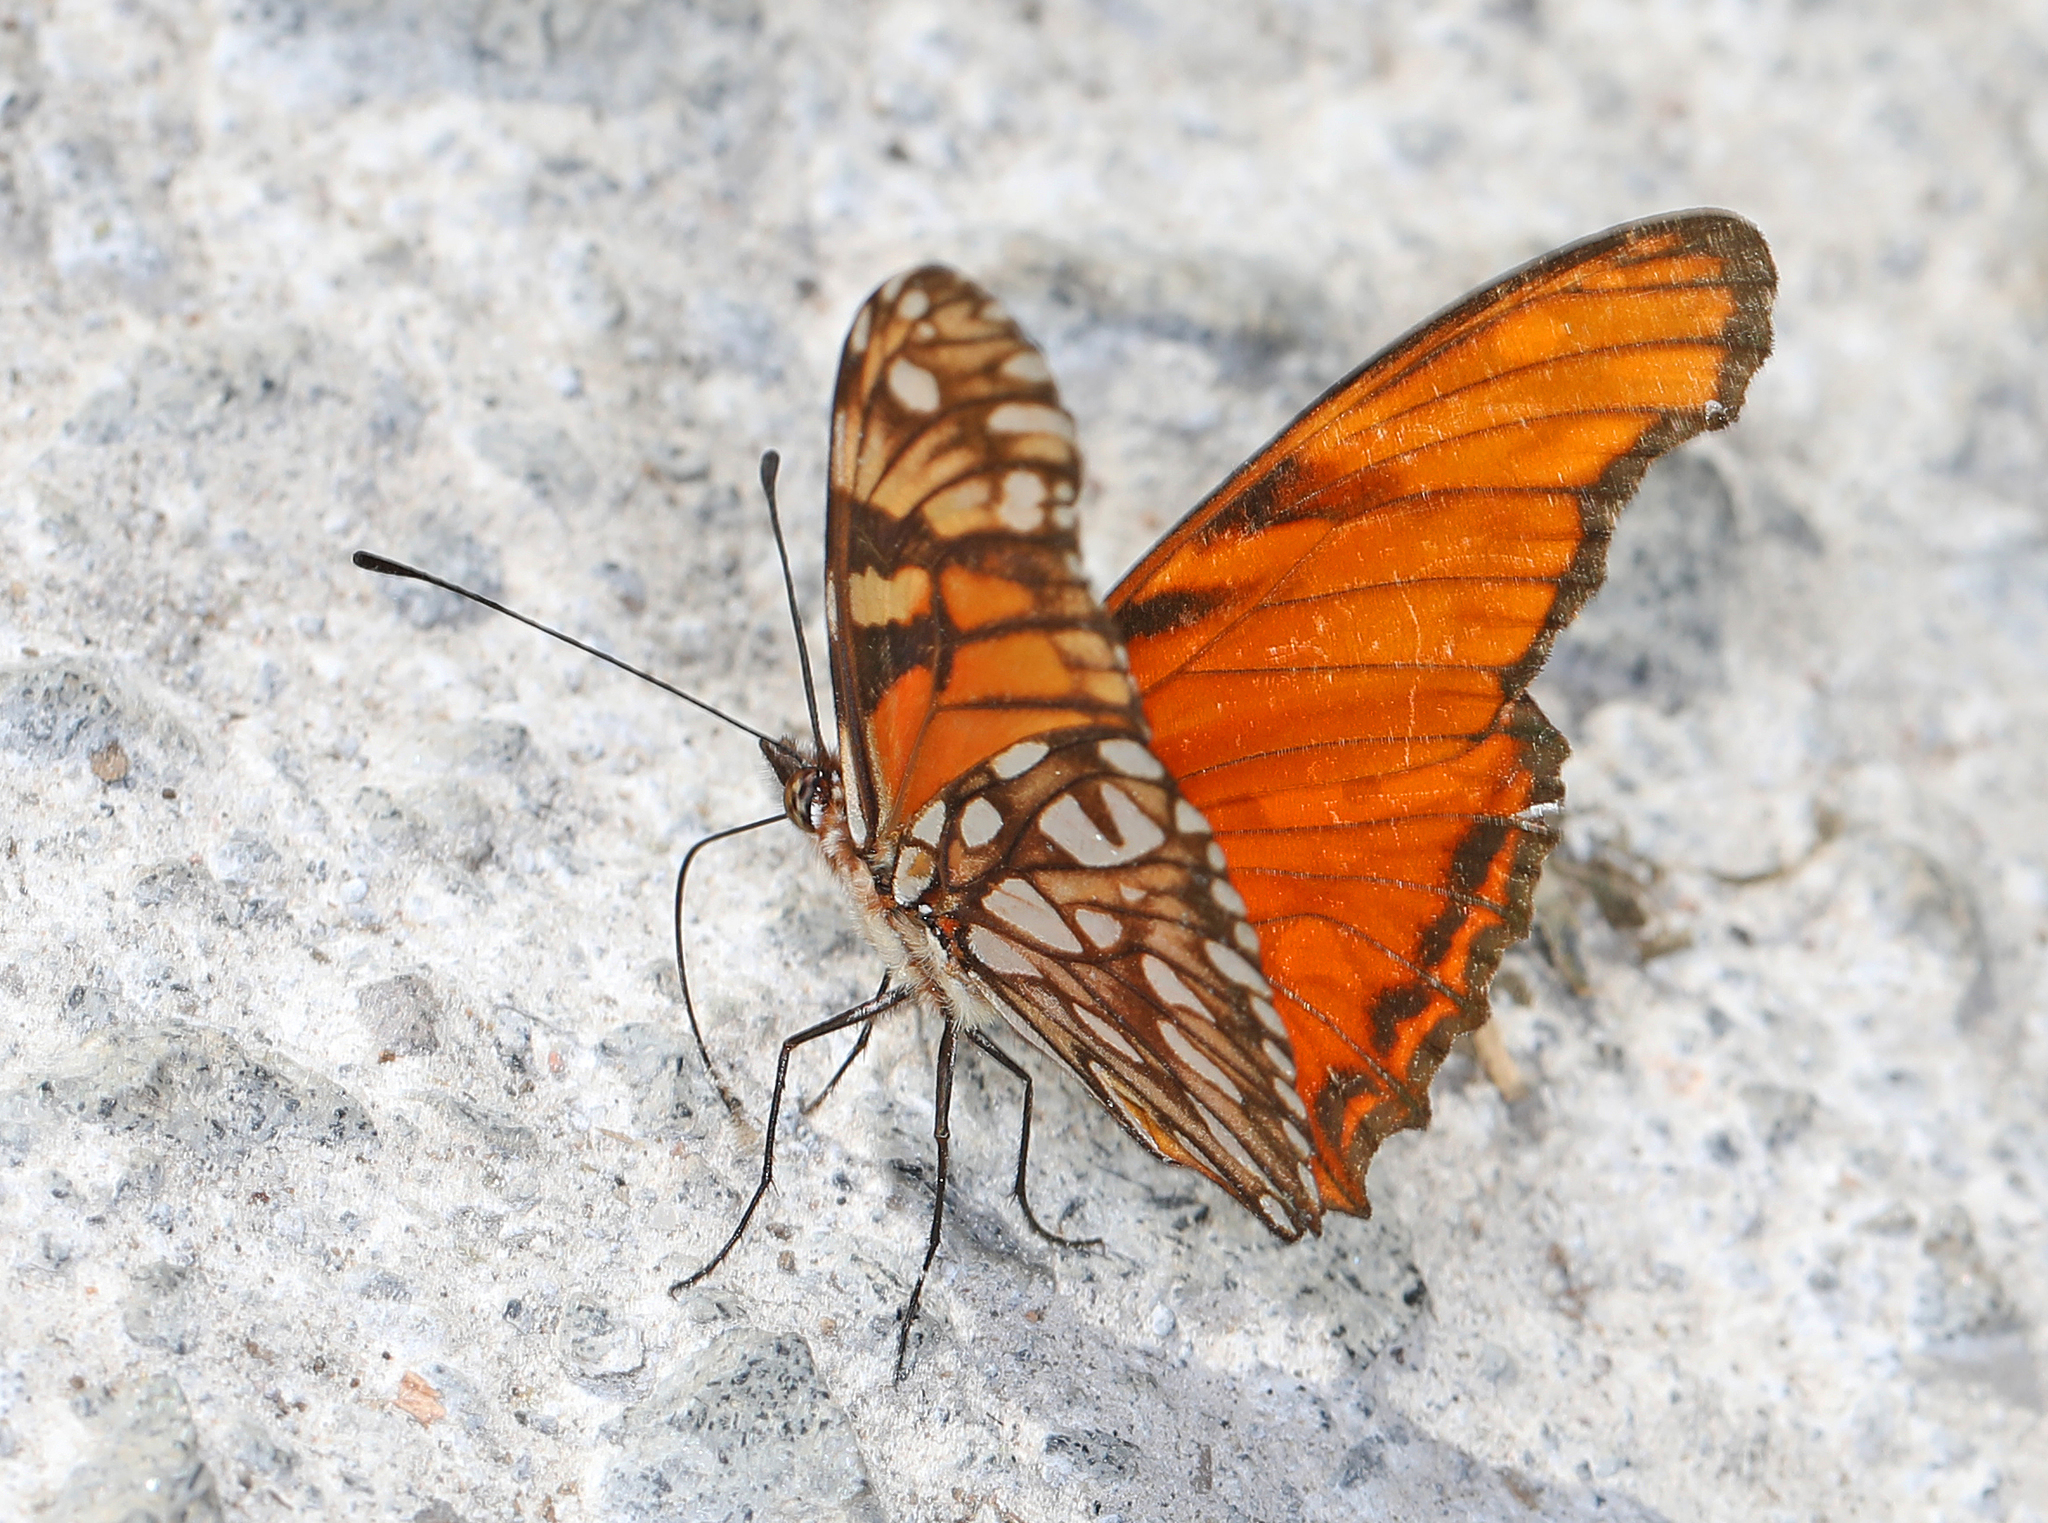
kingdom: Animalia
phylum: Arthropoda
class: Insecta
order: Lepidoptera
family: Nymphalidae
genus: Dione
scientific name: Dione juno
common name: Juno silverspot
